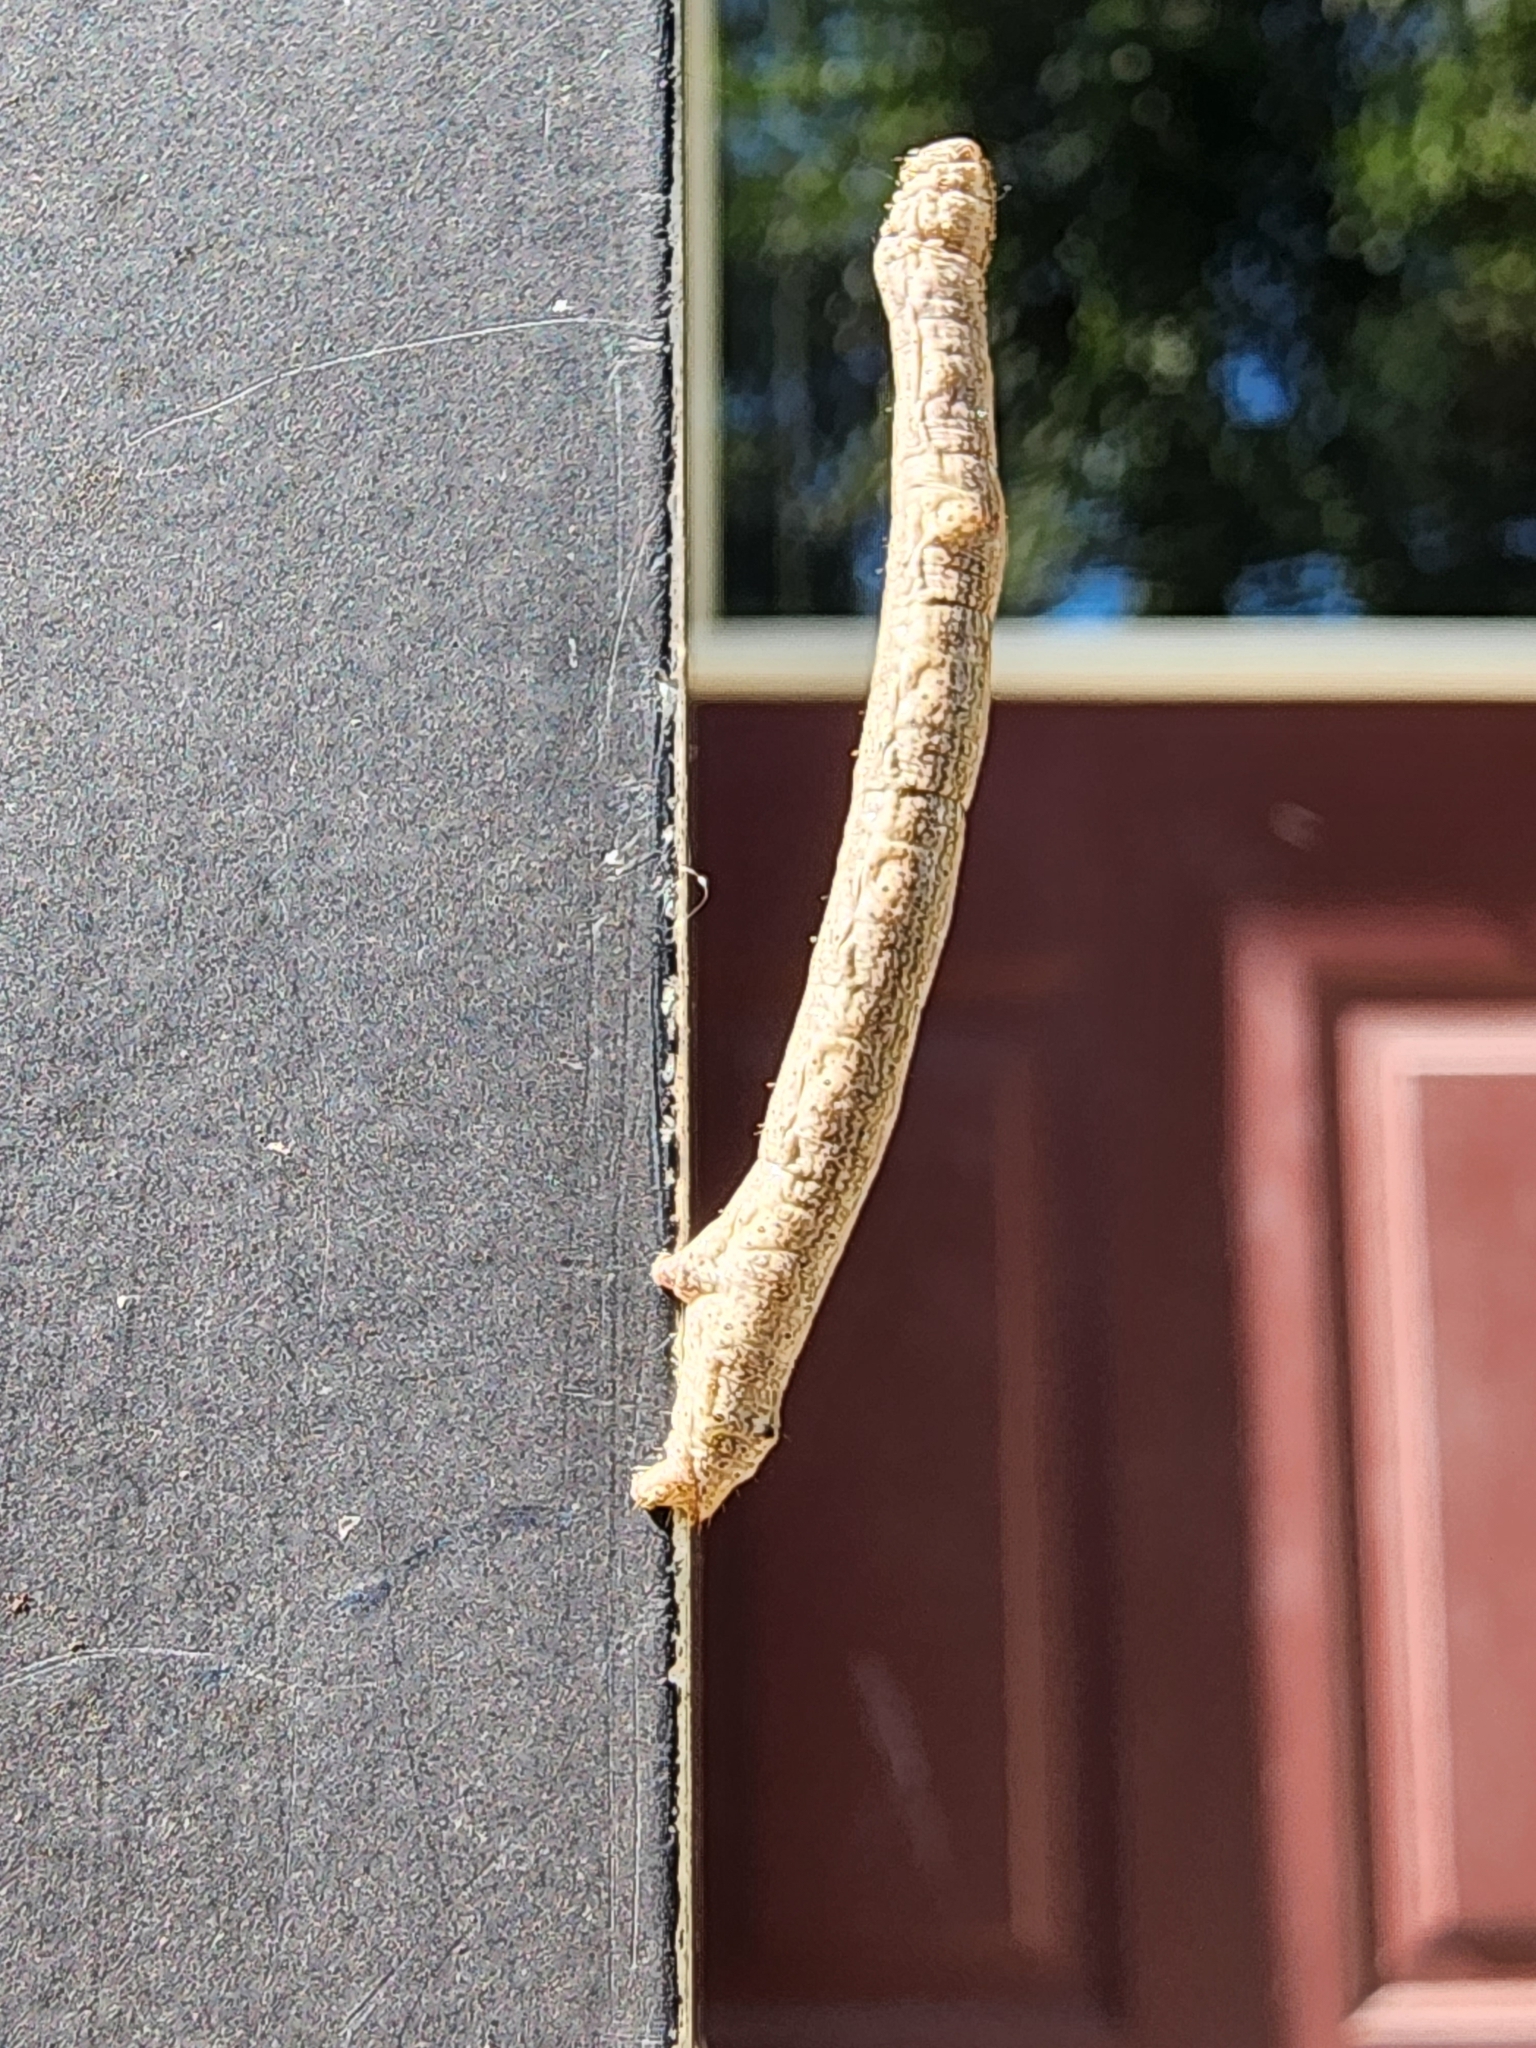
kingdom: Animalia
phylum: Arthropoda
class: Insecta
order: Lepidoptera
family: Geometridae
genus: Glena
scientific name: Glena cribrataria
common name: Dotted gray
